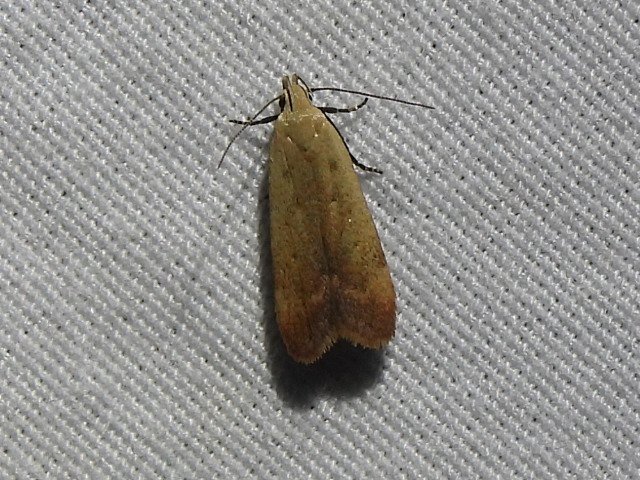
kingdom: Animalia
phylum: Arthropoda
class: Insecta
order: Lepidoptera
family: Gelechiidae
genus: Anacampsis
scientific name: Anacampsis fullonella
